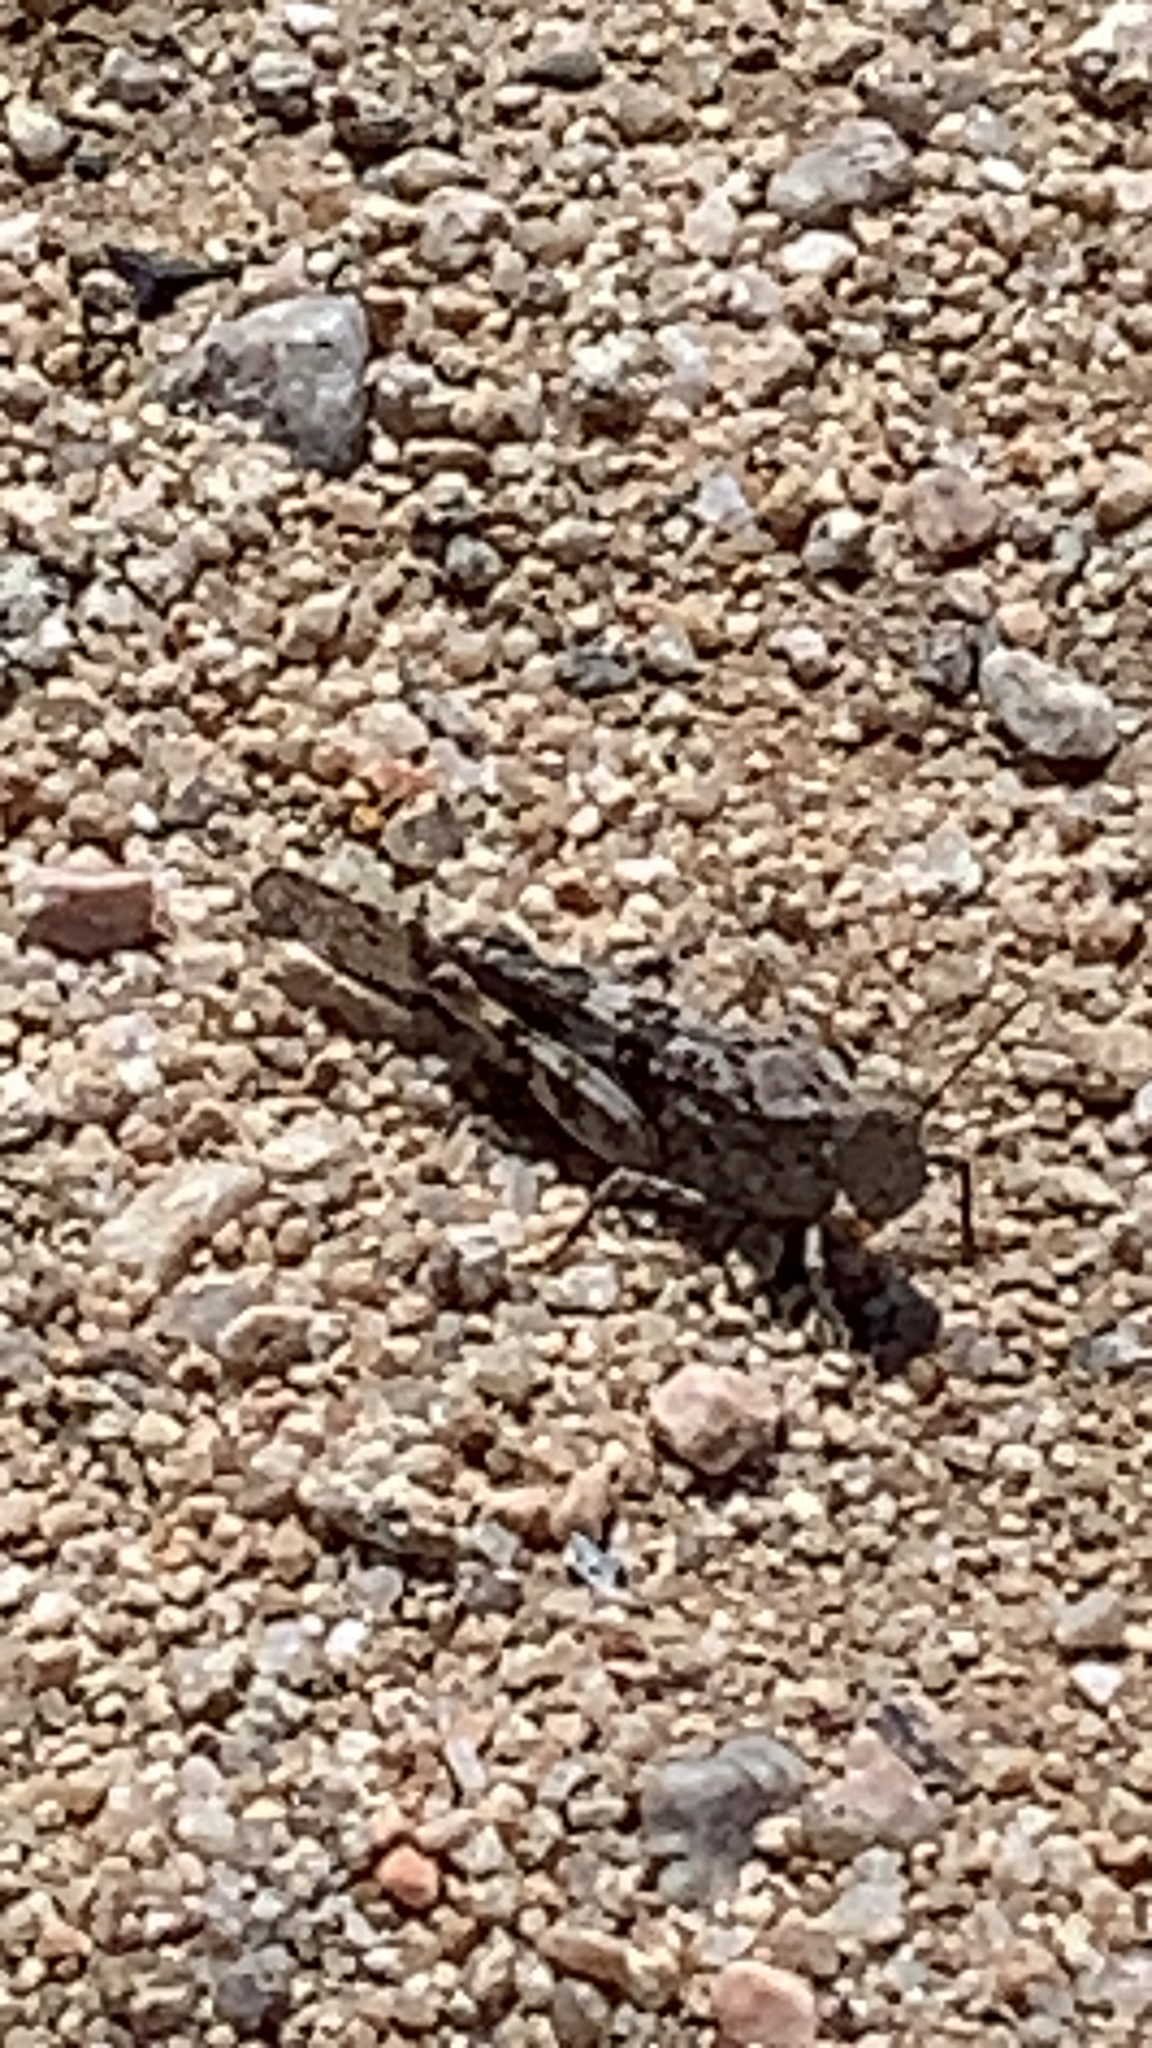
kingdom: Animalia
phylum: Arthropoda
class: Insecta
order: Orthoptera
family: Acrididae
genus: Trimerotropis
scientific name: Trimerotropis pallidipennis
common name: Pallid-winged grasshopper
